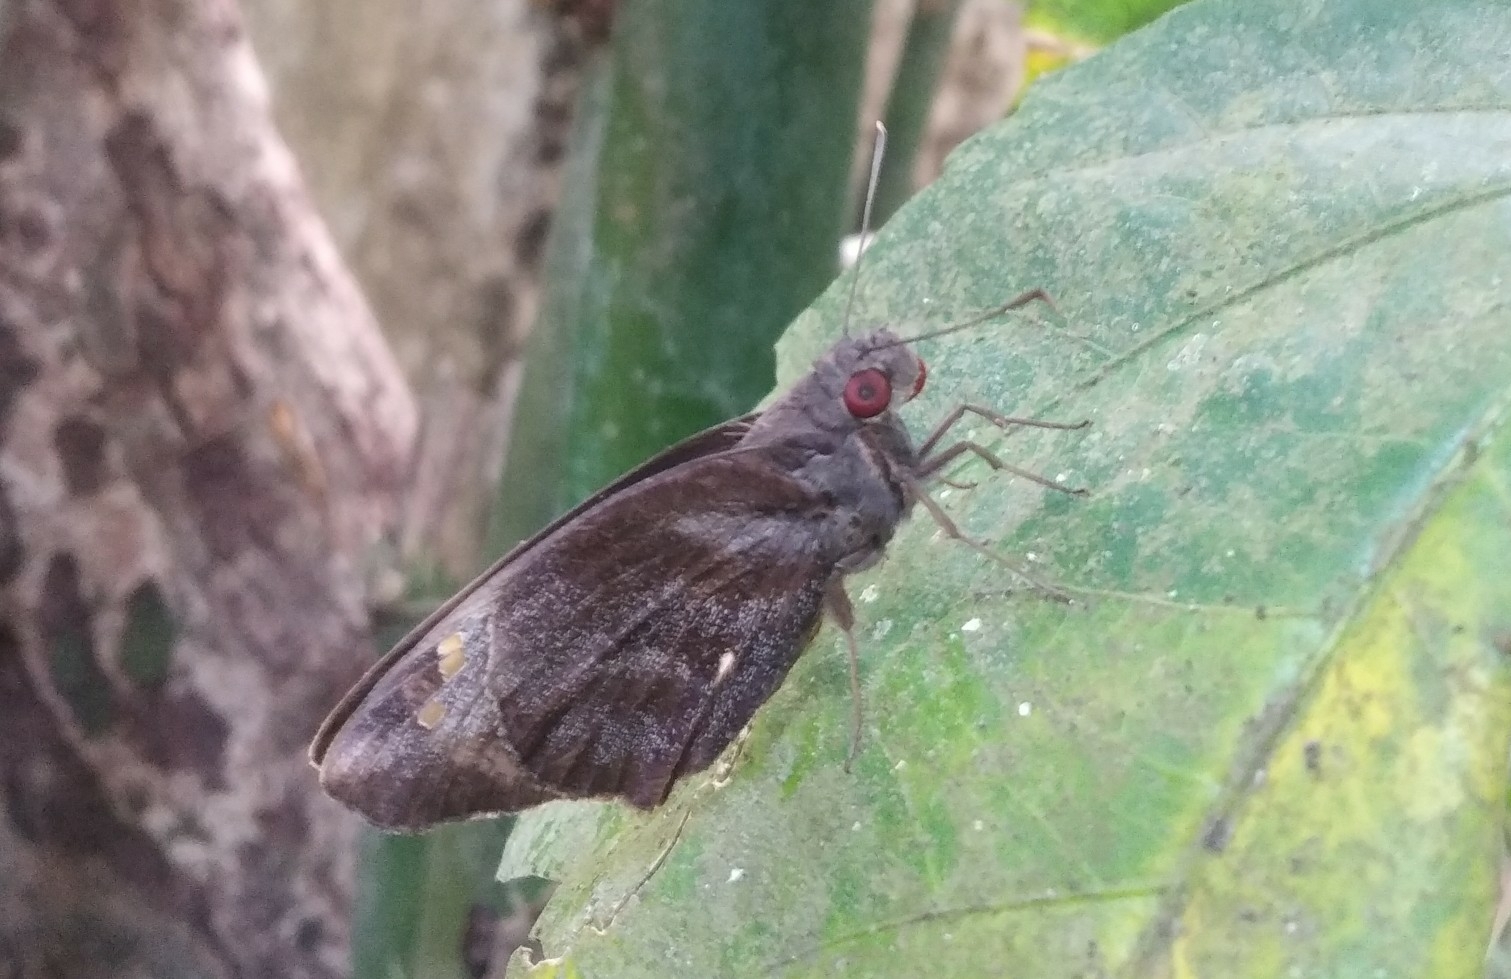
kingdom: Animalia
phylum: Arthropoda
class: Insecta
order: Lepidoptera
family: Hesperiidae
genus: Gangara
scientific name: Gangara thyrsis
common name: Giant redeye
